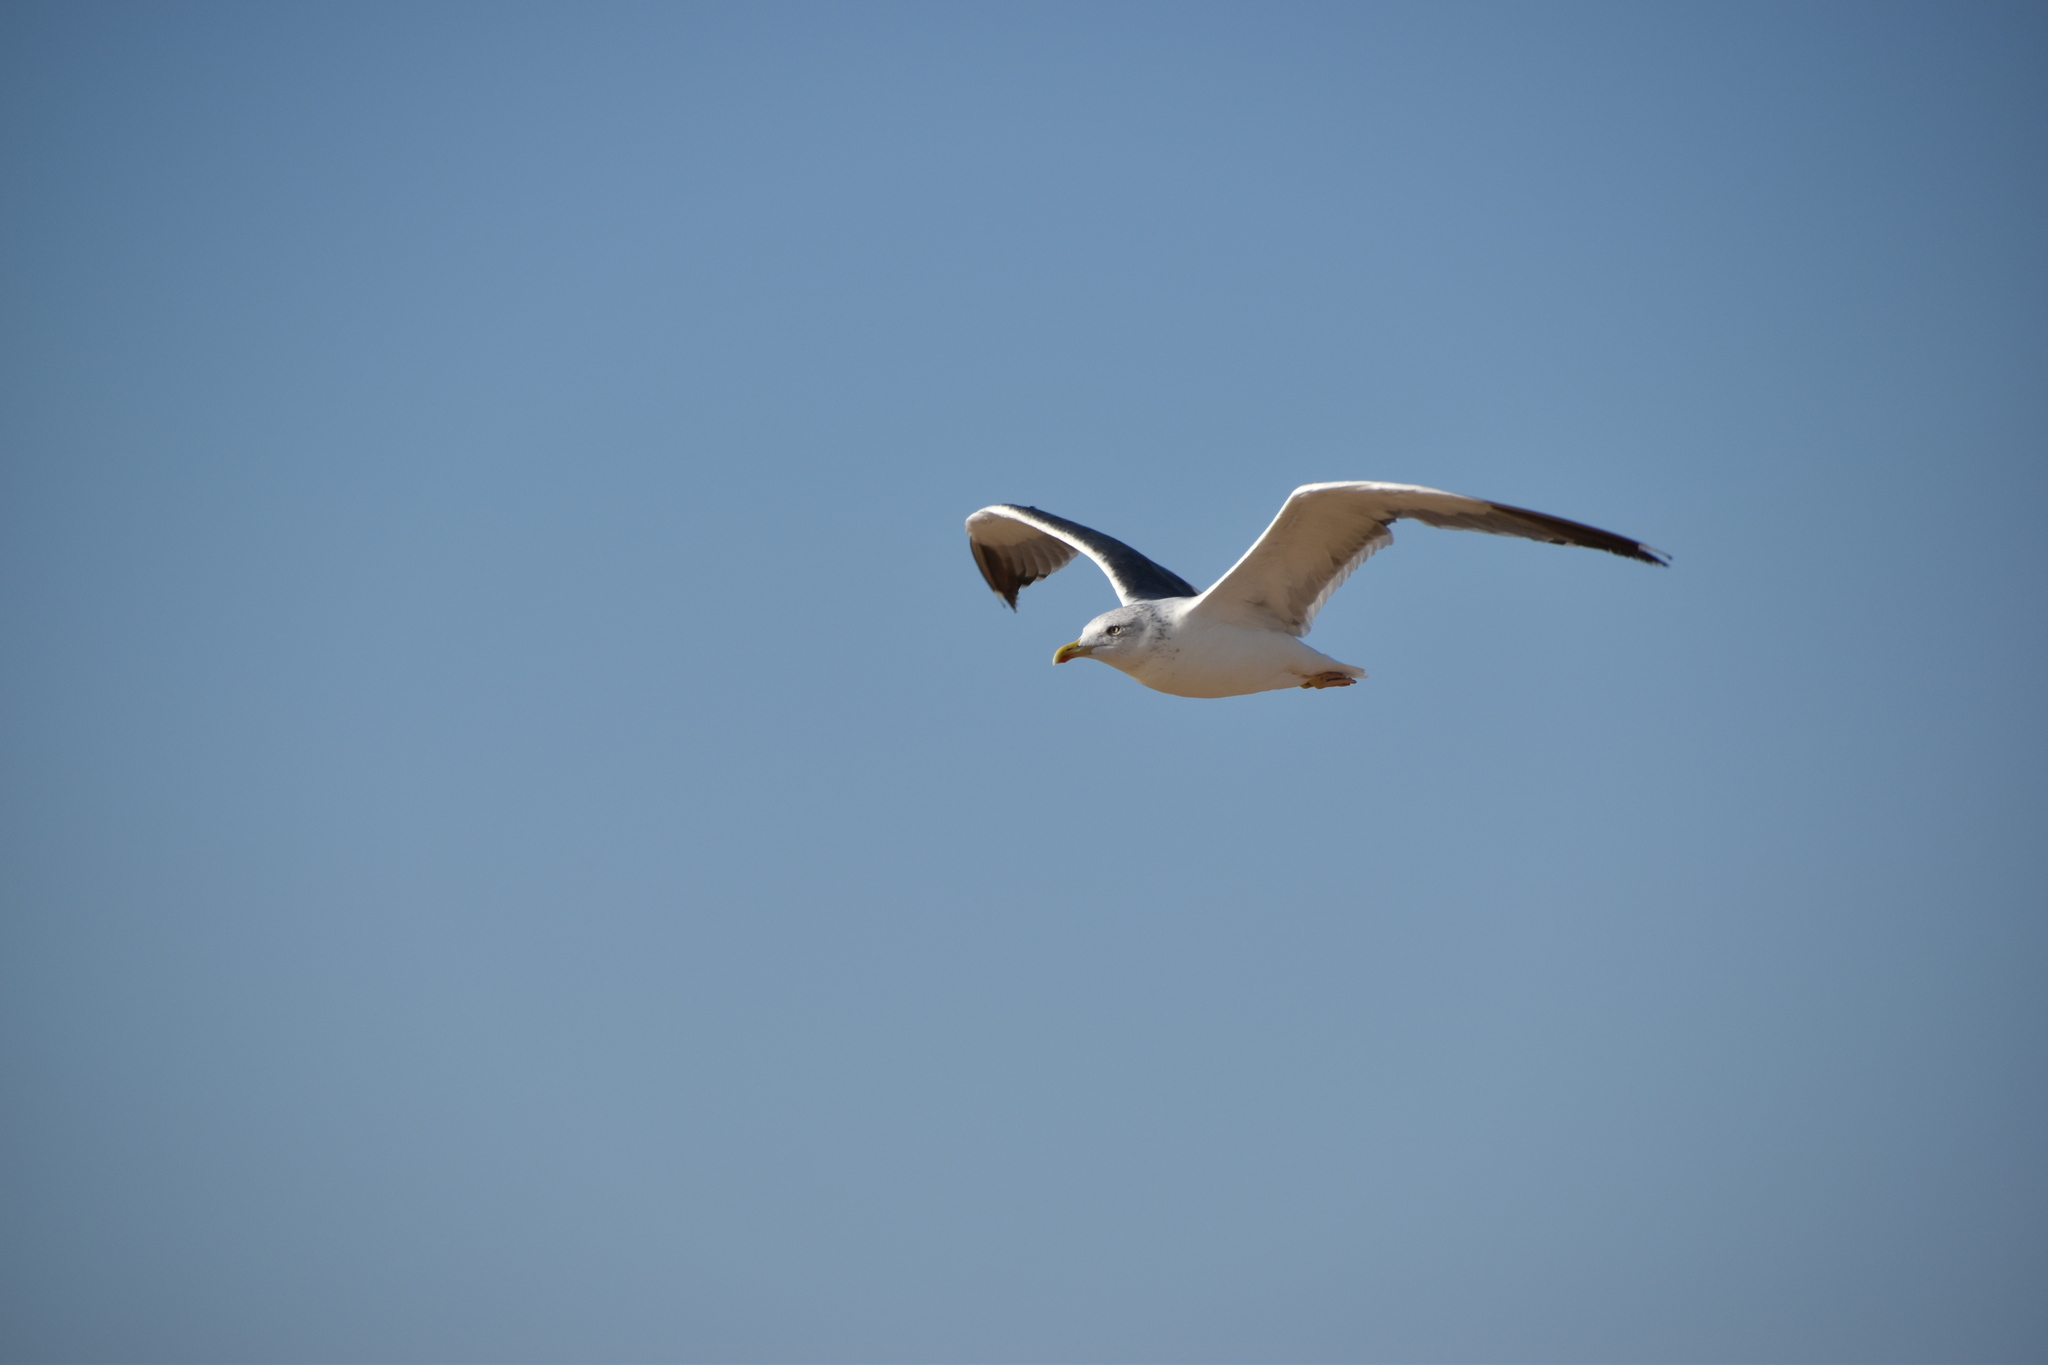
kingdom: Animalia
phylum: Chordata
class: Aves
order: Charadriiformes
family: Laridae
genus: Larus
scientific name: Larus fuscus
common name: Lesser black-backed gull
